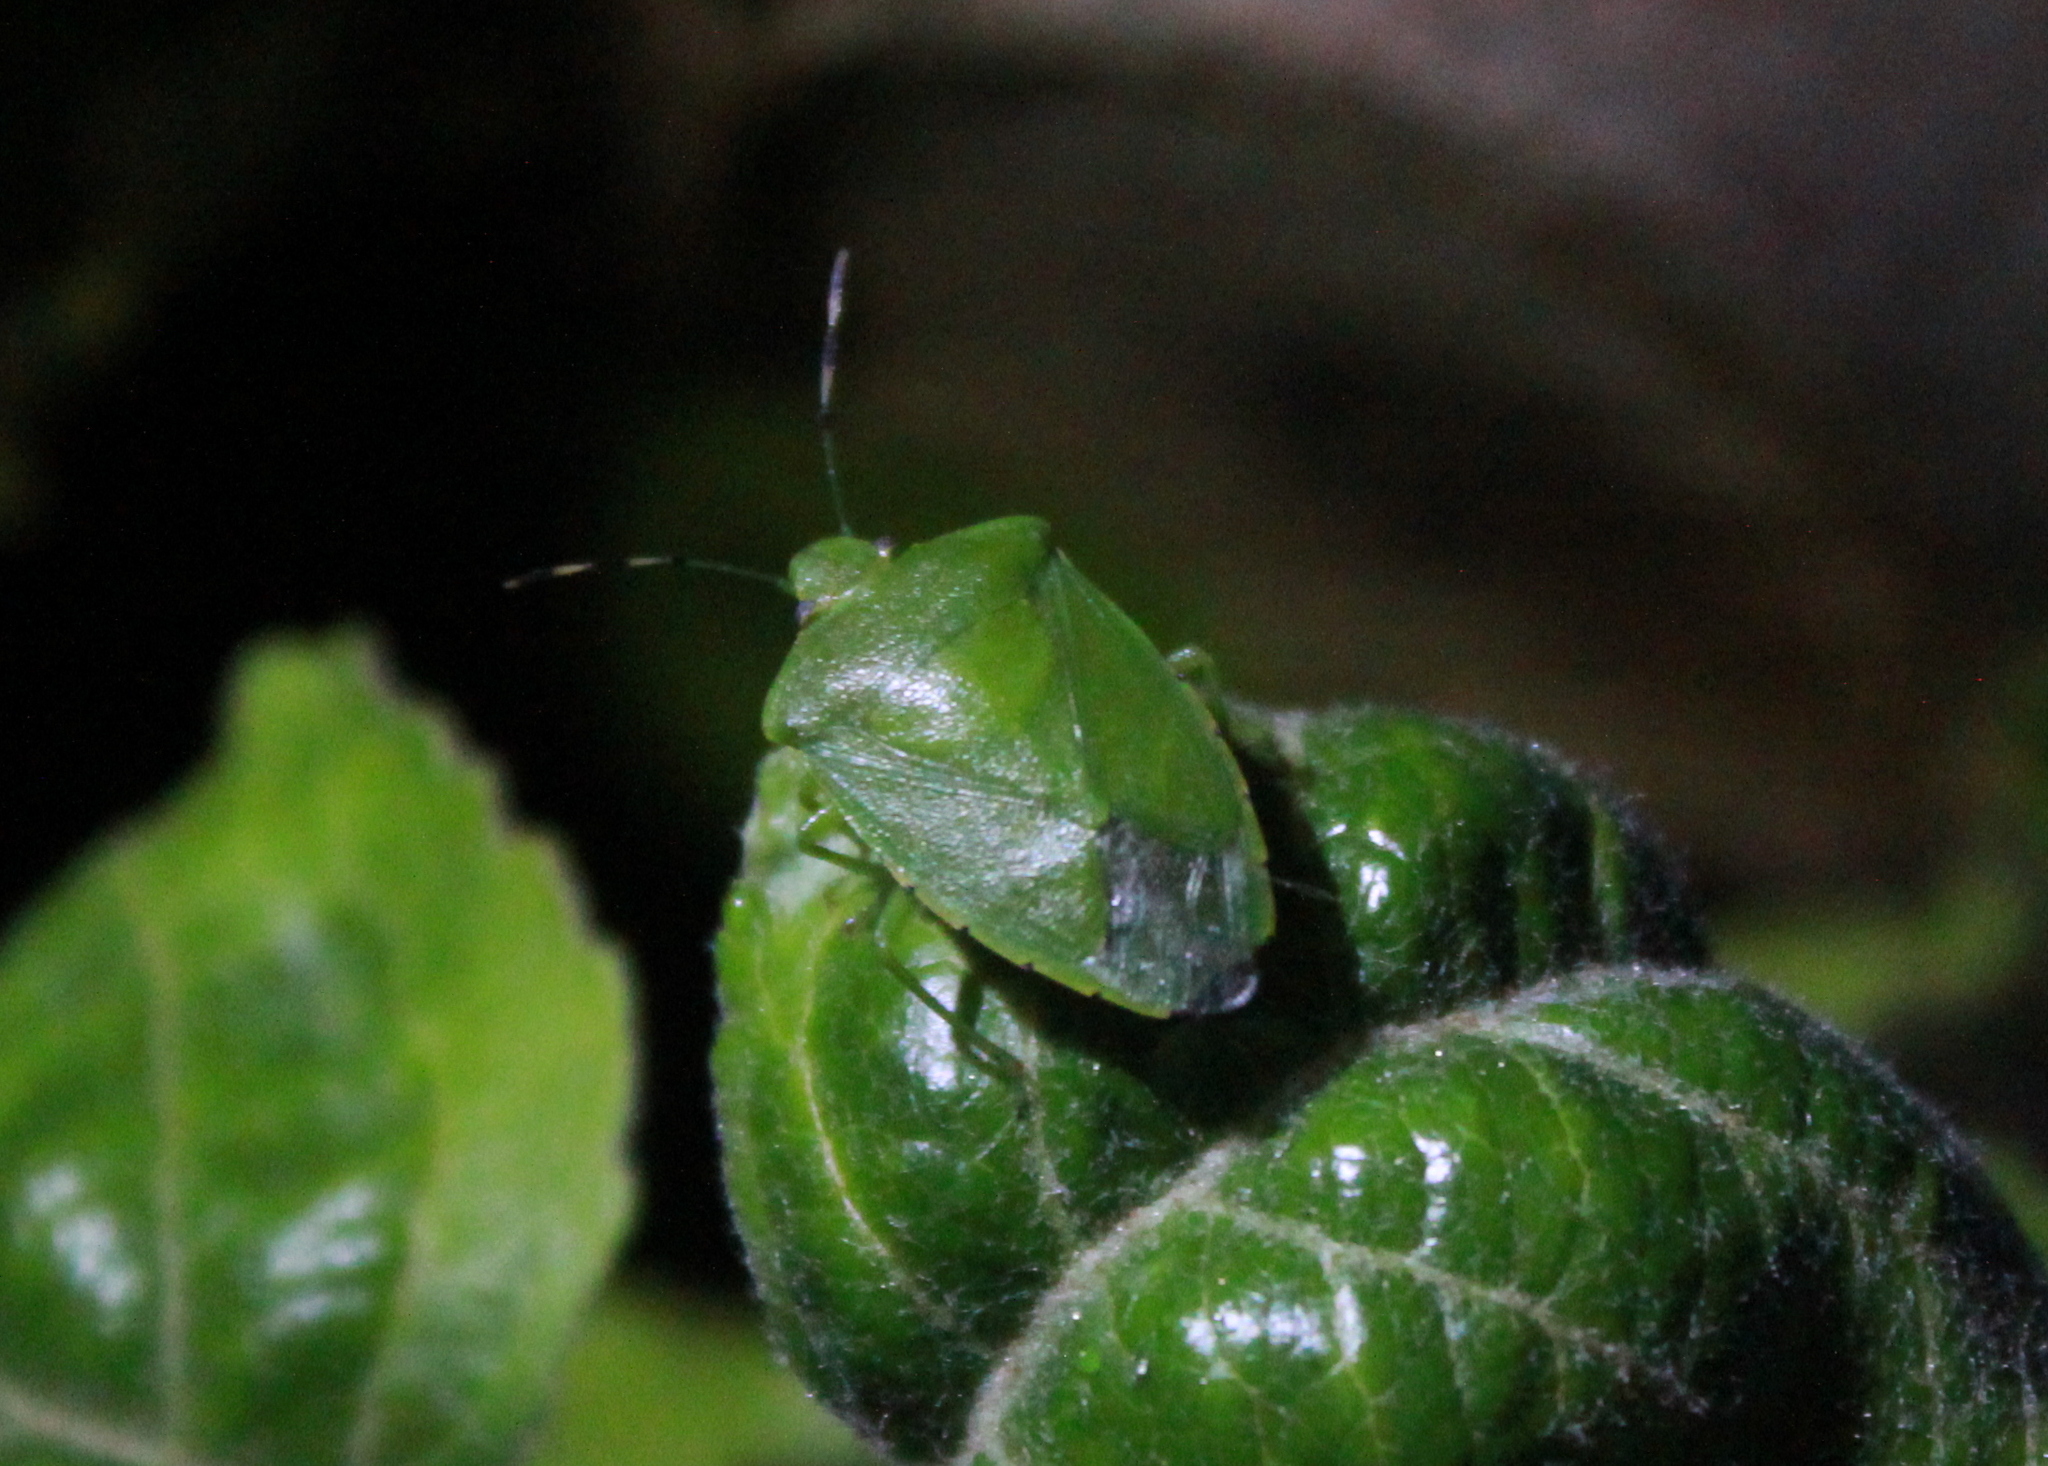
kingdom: Animalia
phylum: Arthropoda
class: Insecta
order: Hemiptera
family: Pentatomidae
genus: Chinavia
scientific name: Chinavia hilaris
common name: Green stink bug
